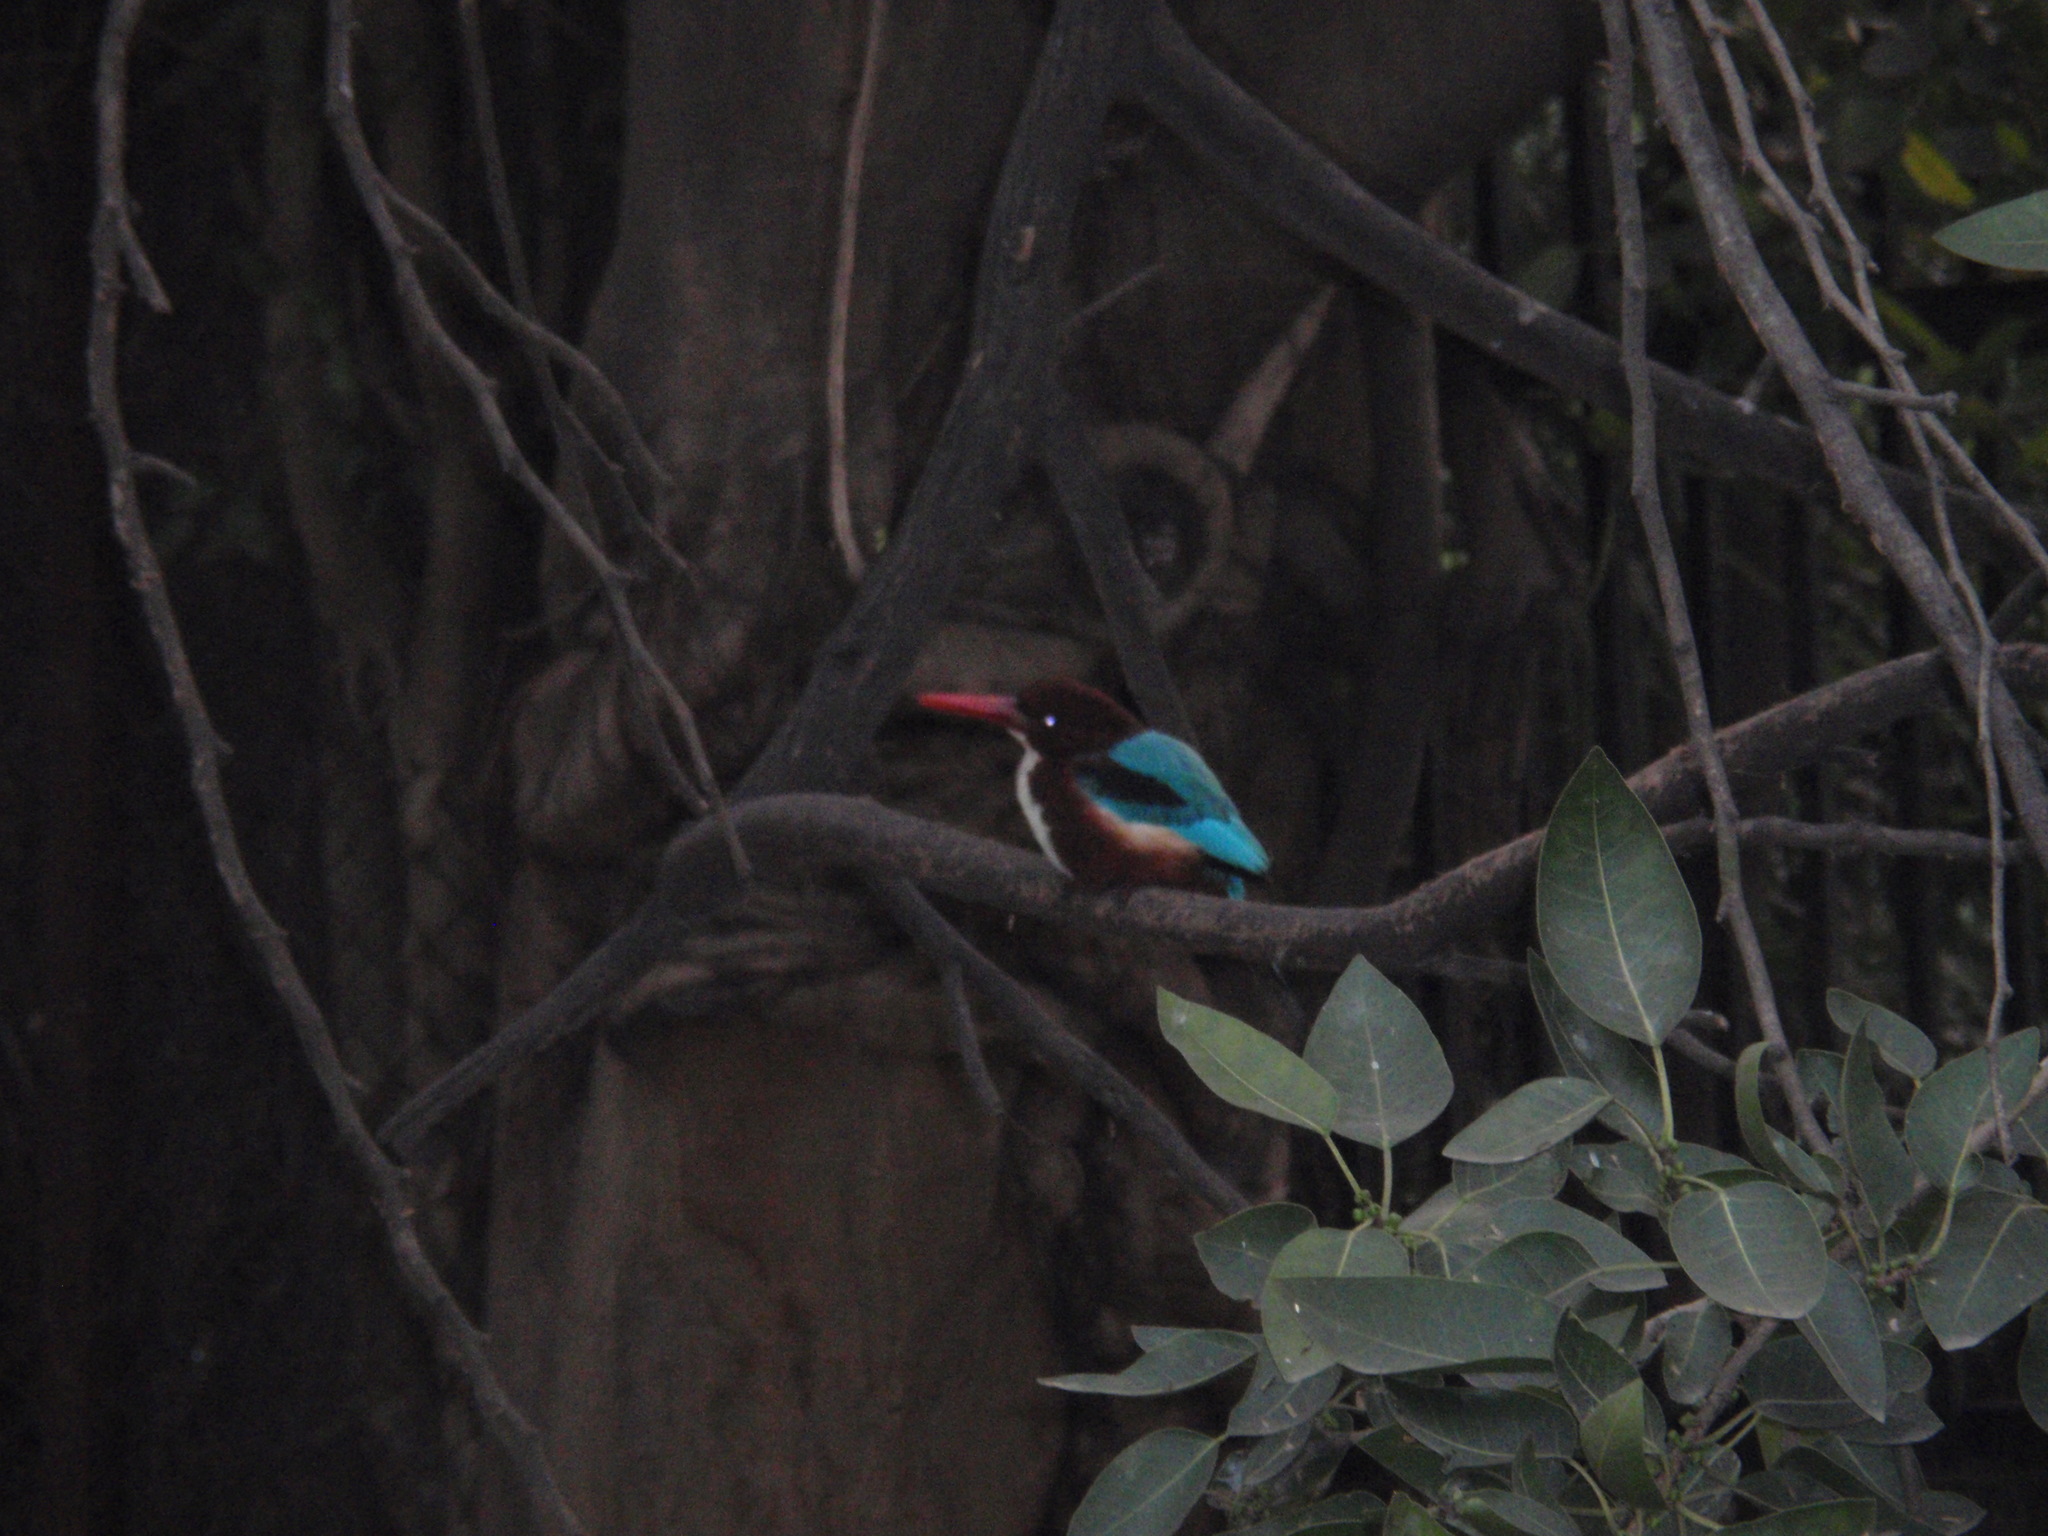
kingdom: Animalia
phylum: Chordata
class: Aves
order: Coraciiformes
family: Alcedinidae
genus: Halcyon
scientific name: Halcyon smyrnensis
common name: White-throated kingfisher
